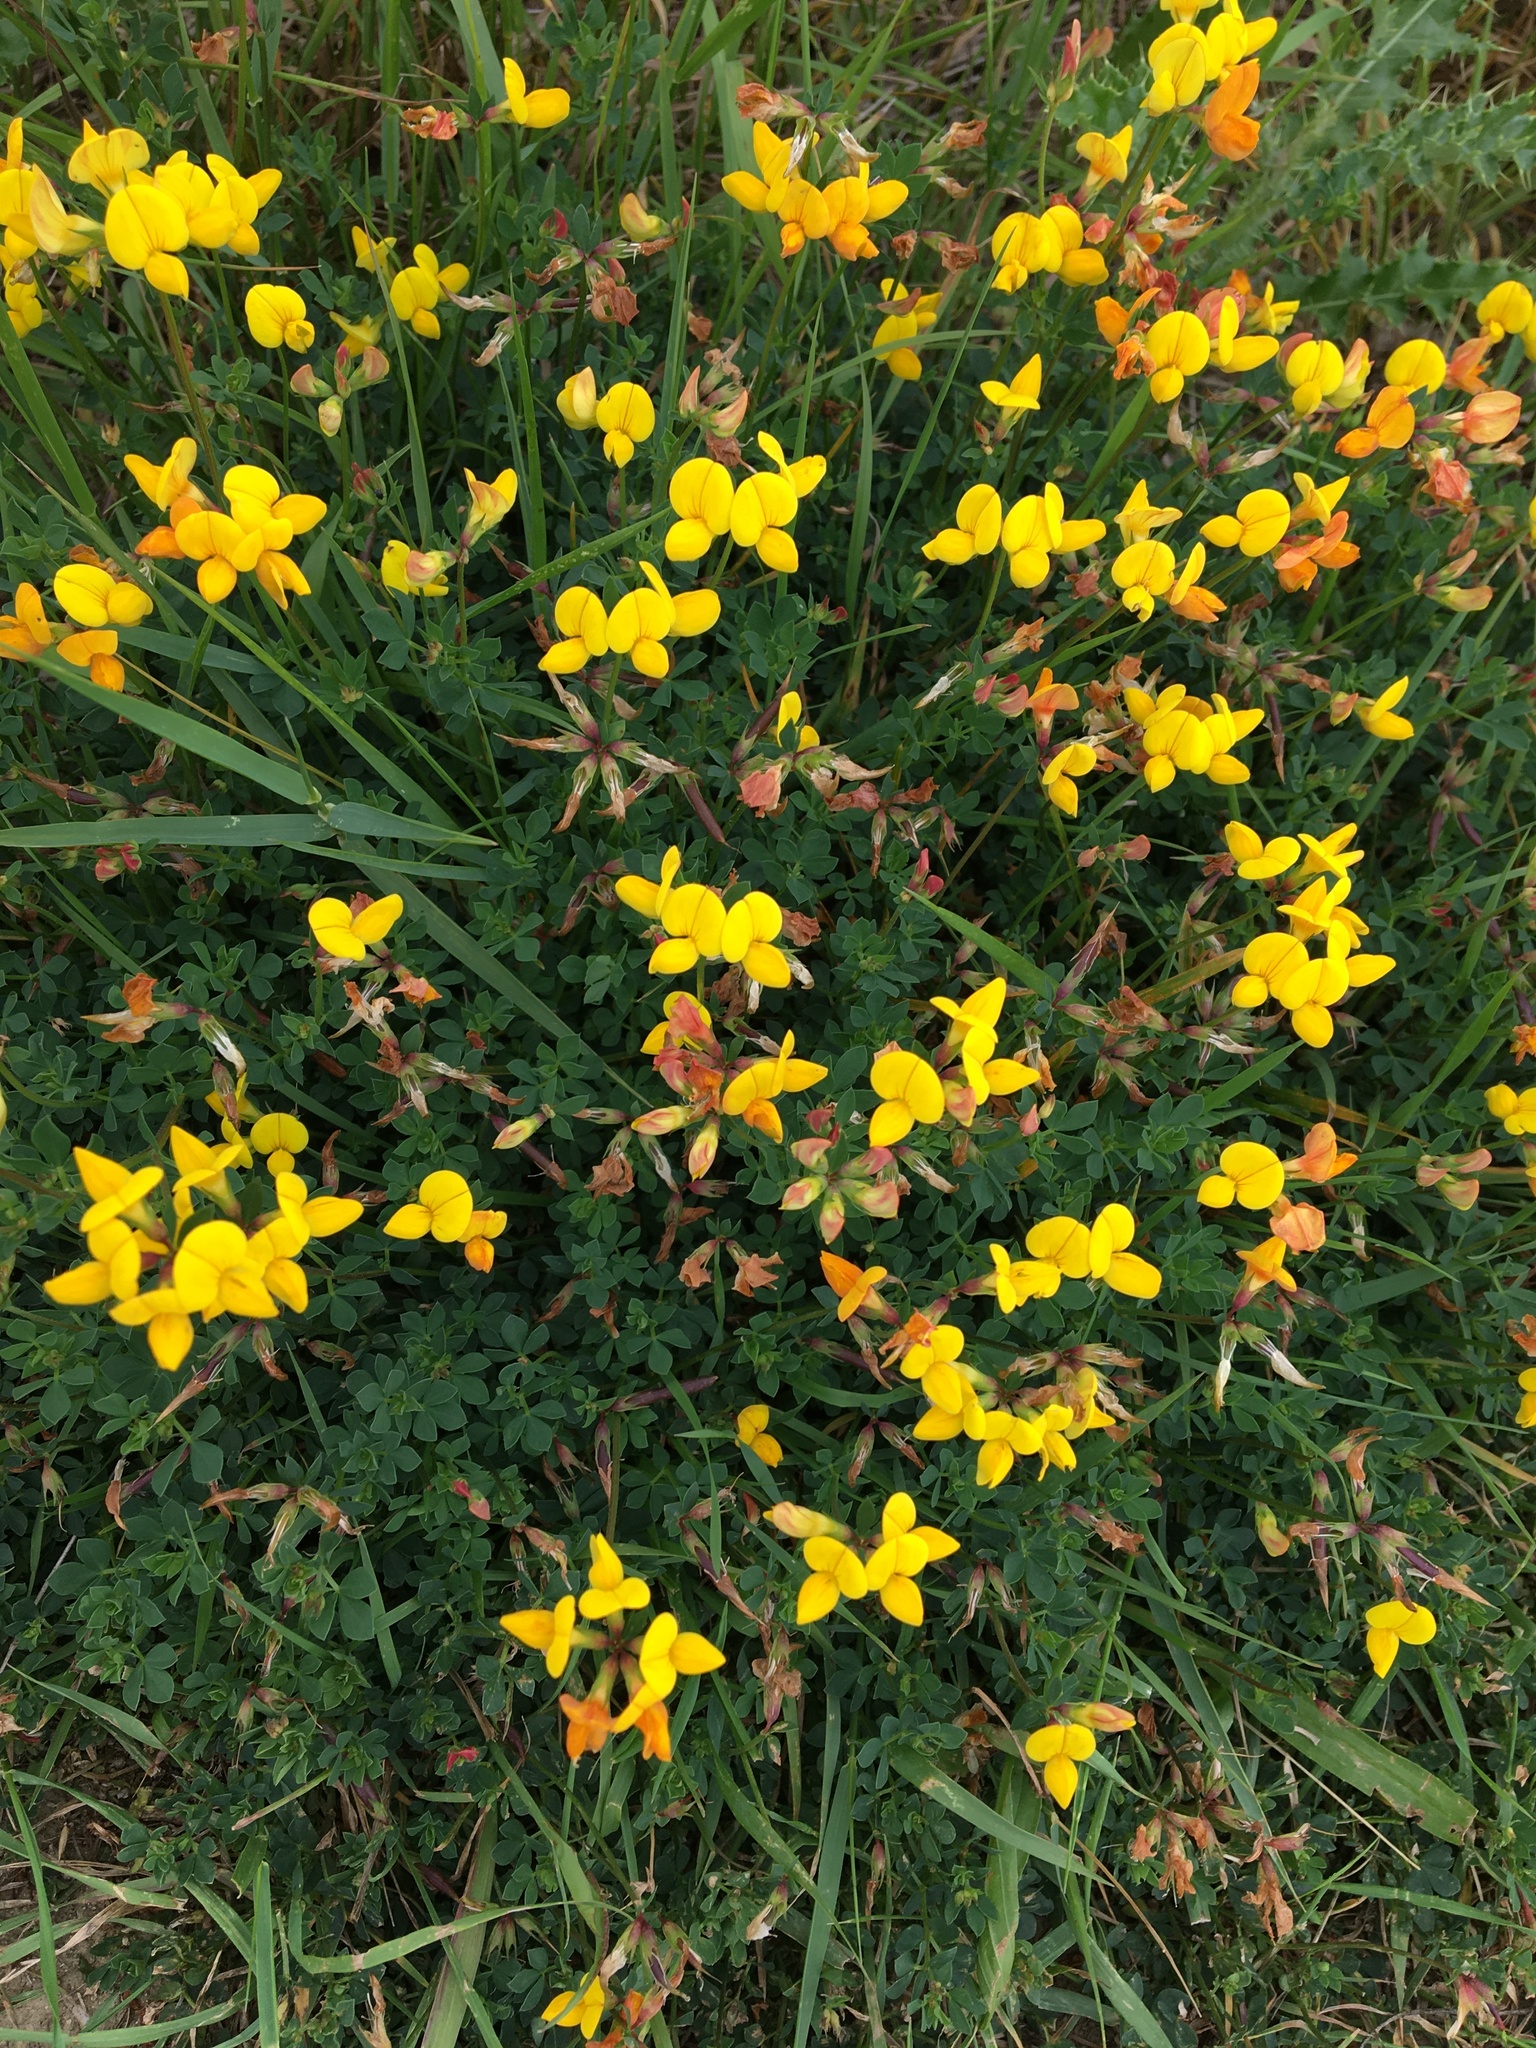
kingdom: Plantae
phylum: Tracheophyta
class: Magnoliopsida
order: Fabales
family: Fabaceae
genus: Lotus
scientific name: Lotus corniculatus
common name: Common bird's-foot-trefoil
